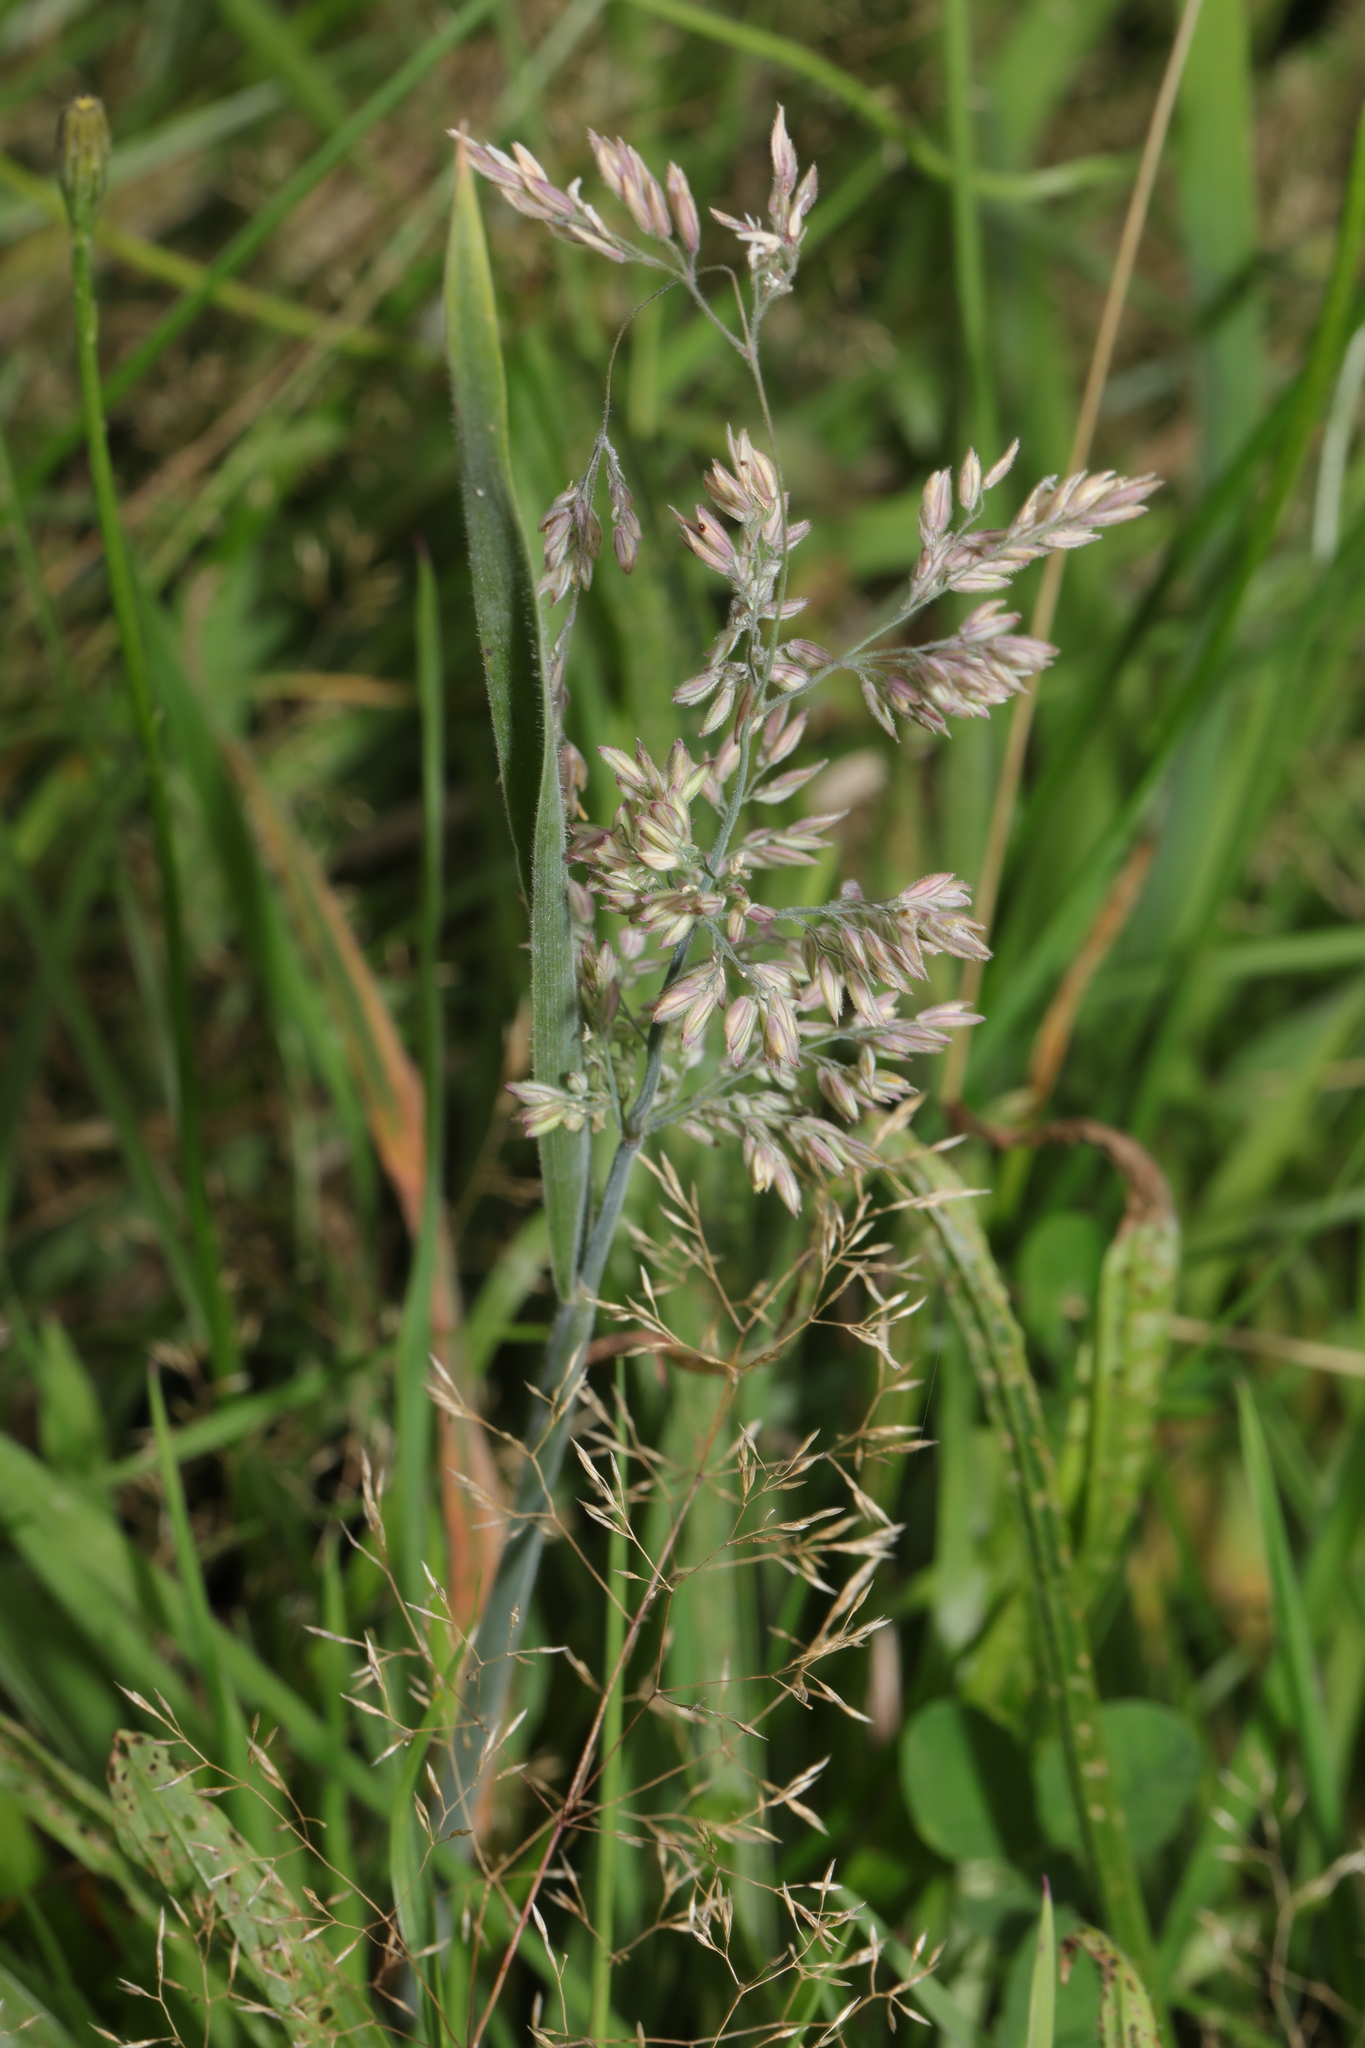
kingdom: Plantae
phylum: Tracheophyta
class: Liliopsida
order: Poales
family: Poaceae
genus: Holcus
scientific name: Holcus lanatus
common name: Yorkshire-fog
